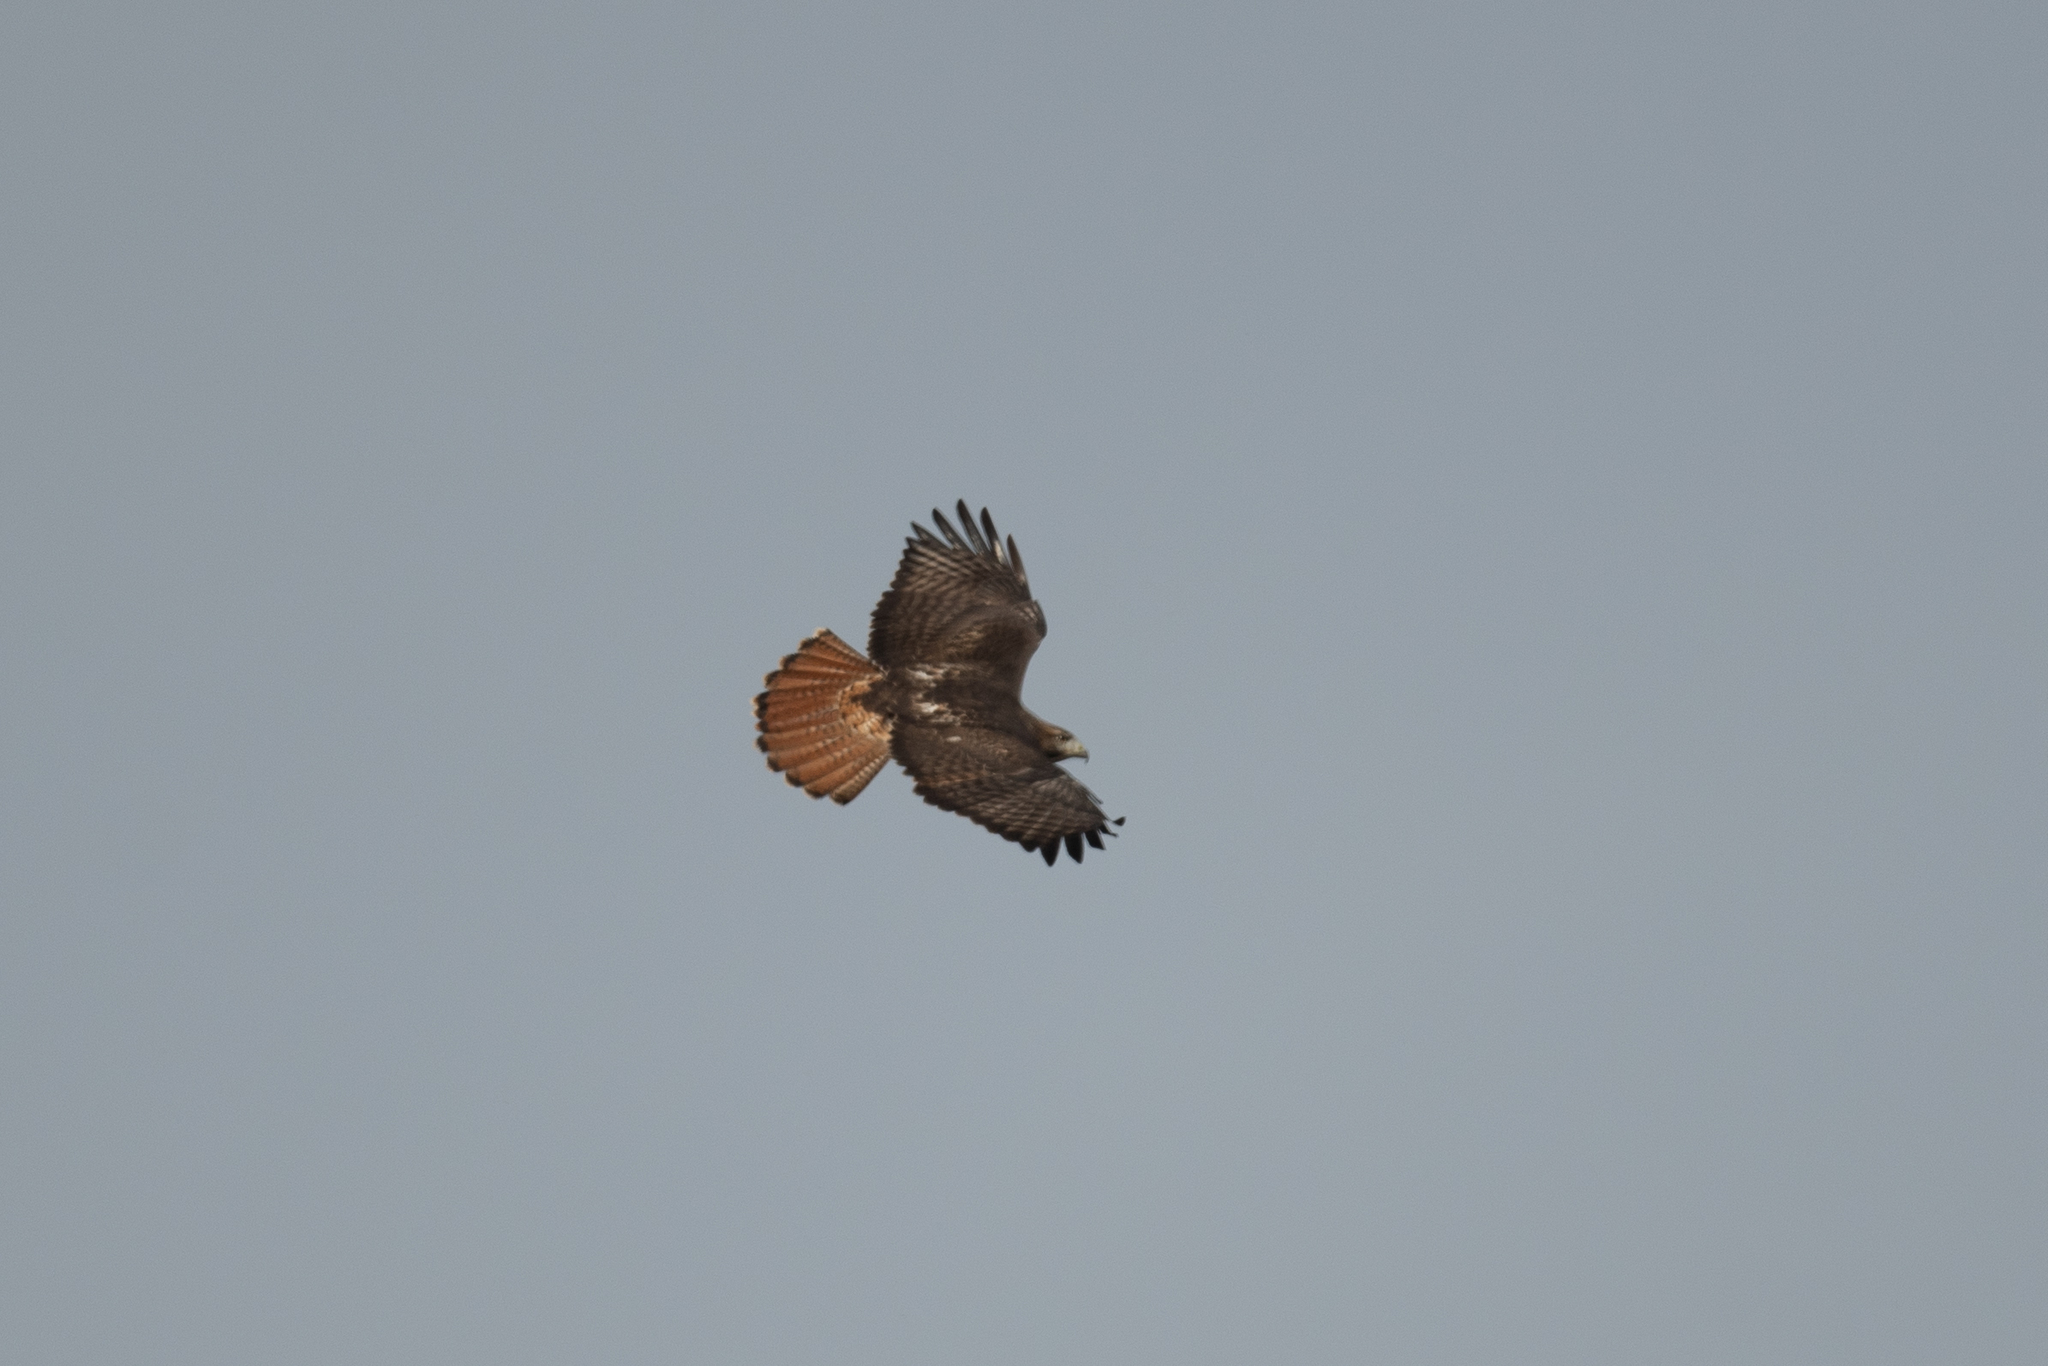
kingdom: Animalia
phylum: Chordata
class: Aves
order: Accipitriformes
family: Accipitridae
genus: Buteo
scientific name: Buteo jamaicensis
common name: Red-tailed hawk
